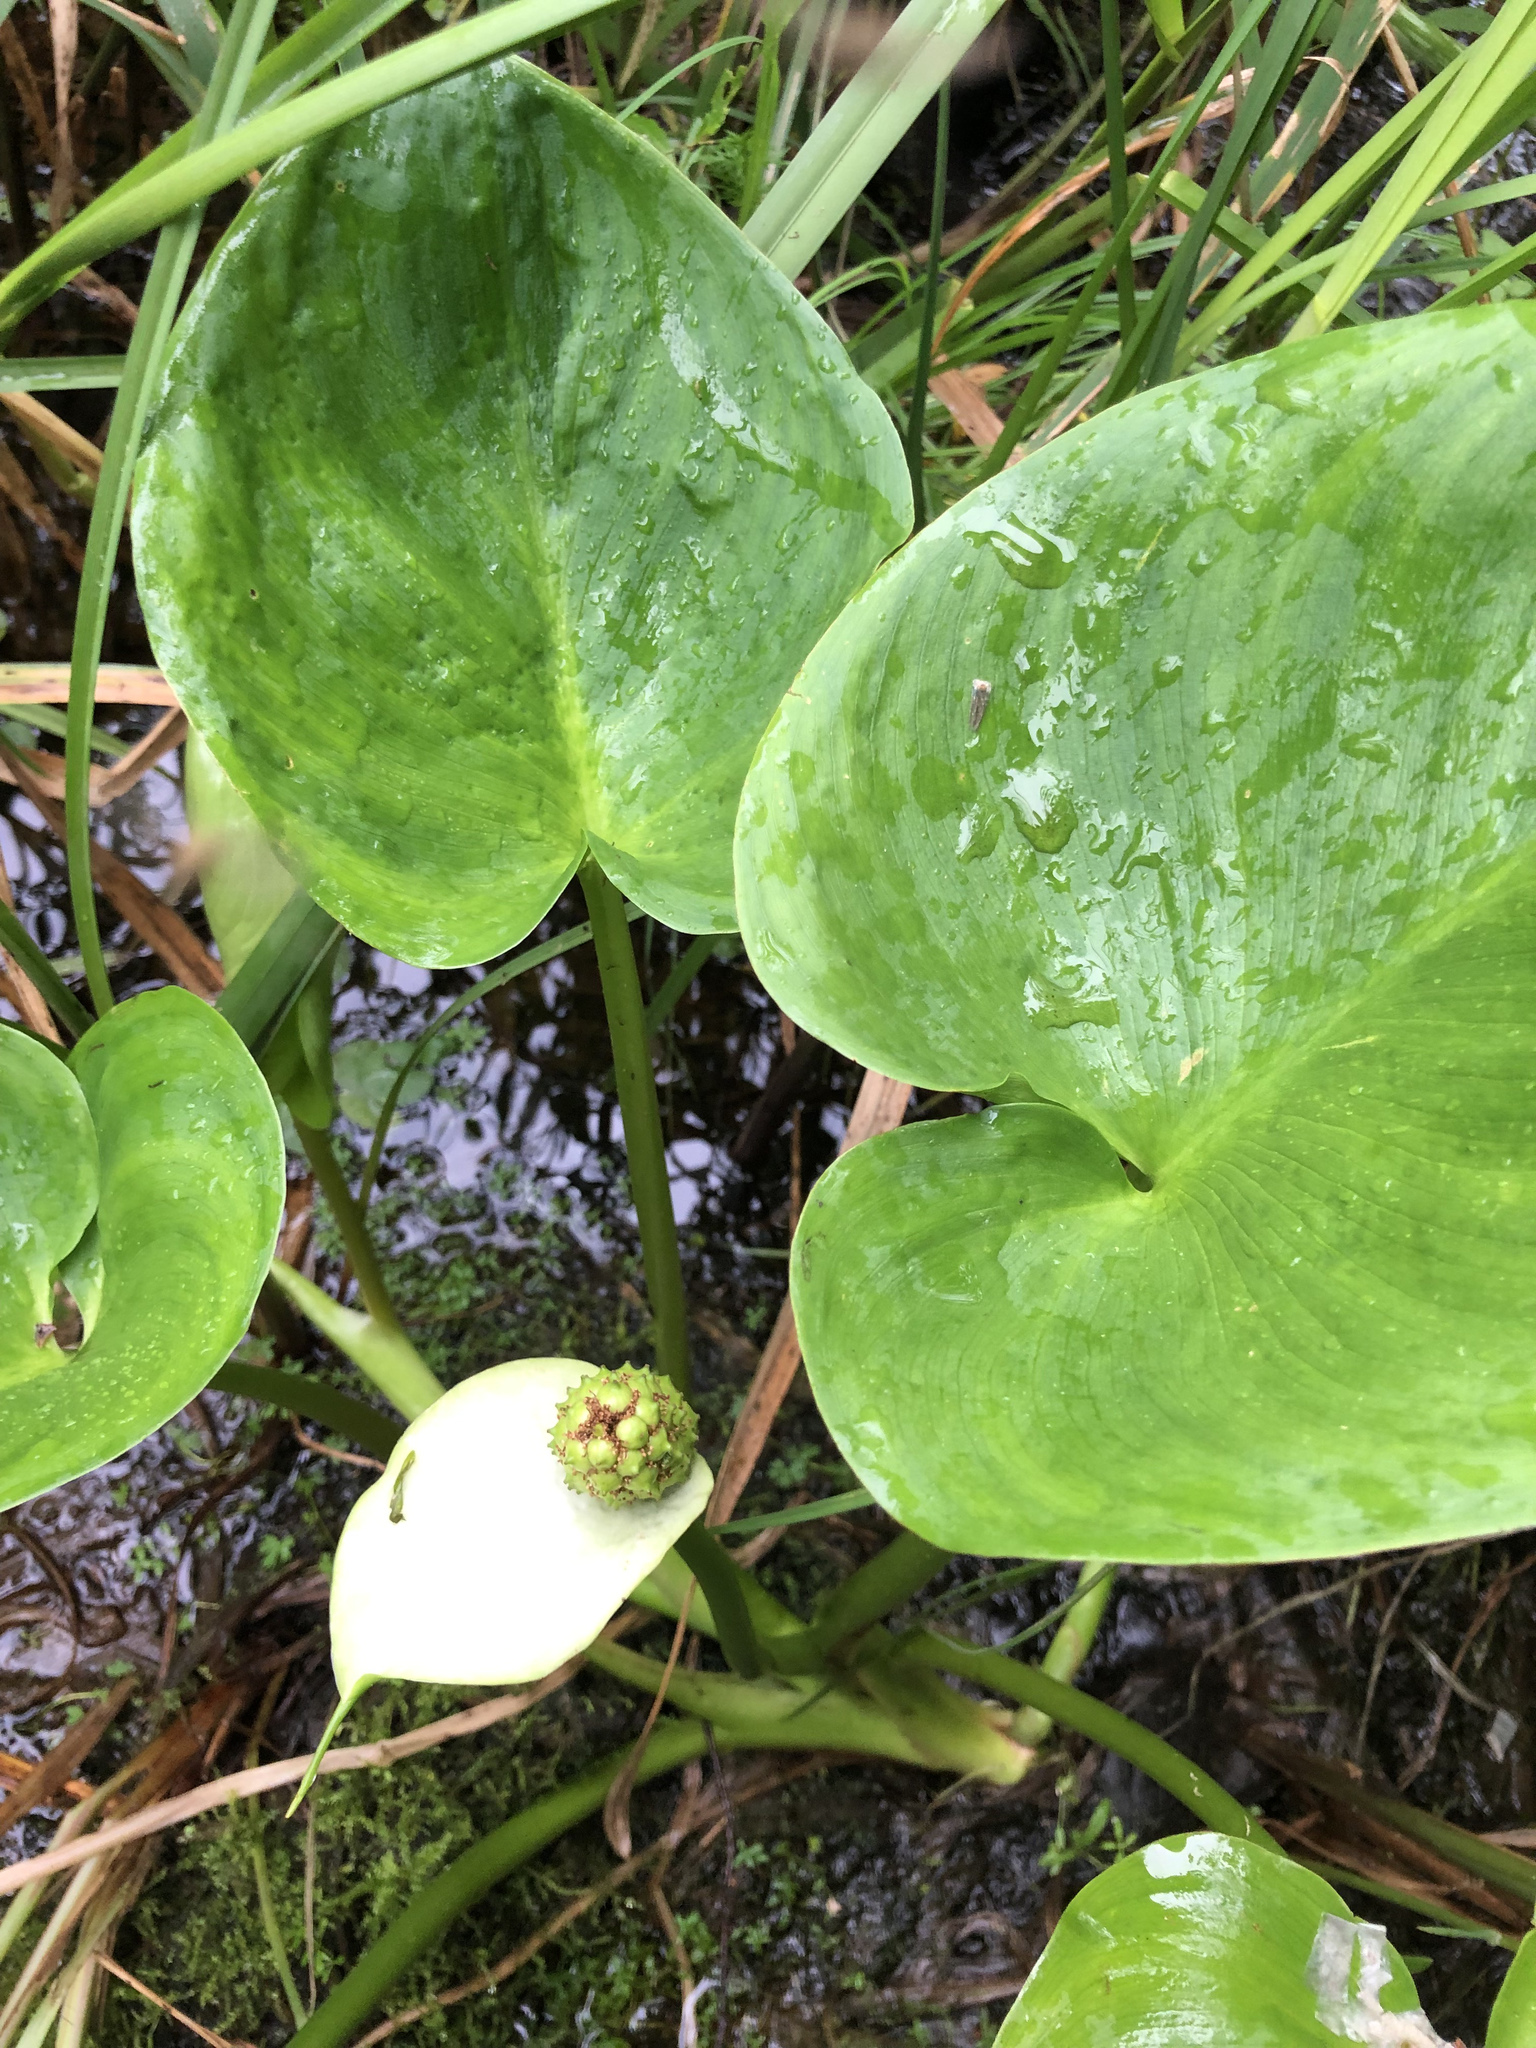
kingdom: Plantae
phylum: Tracheophyta
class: Liliopsida
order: Alismatales
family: Araceae
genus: Calla
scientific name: Calla palustris
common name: Bog arum
